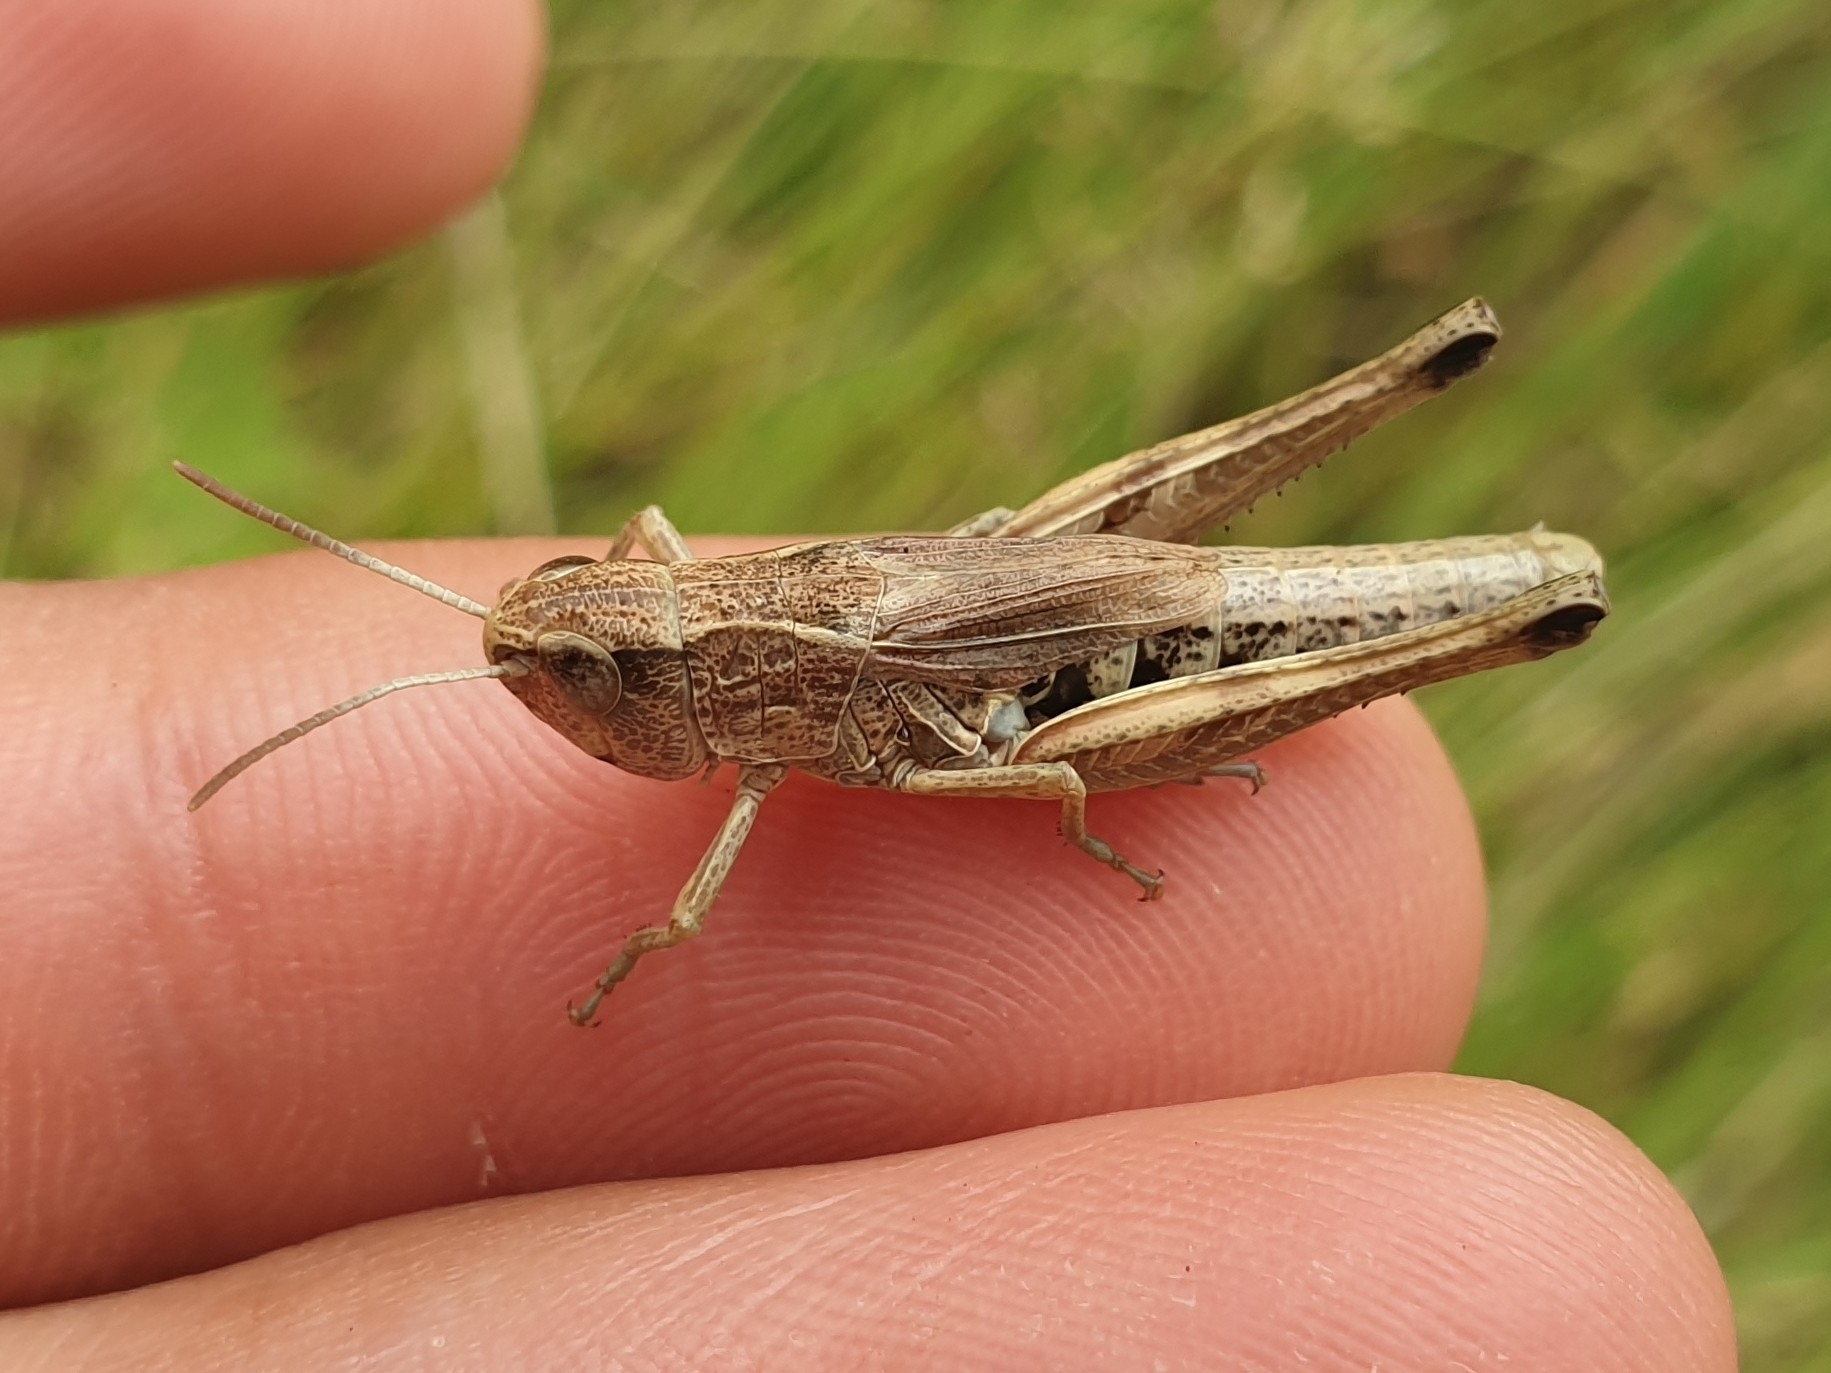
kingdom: Animalia
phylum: Arthropoda
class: Insecta
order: Orthoptera
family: Acrididae
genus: Pseudochorthippus
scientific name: Pseudochorthippus parallelus
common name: Meadow grasshopper
